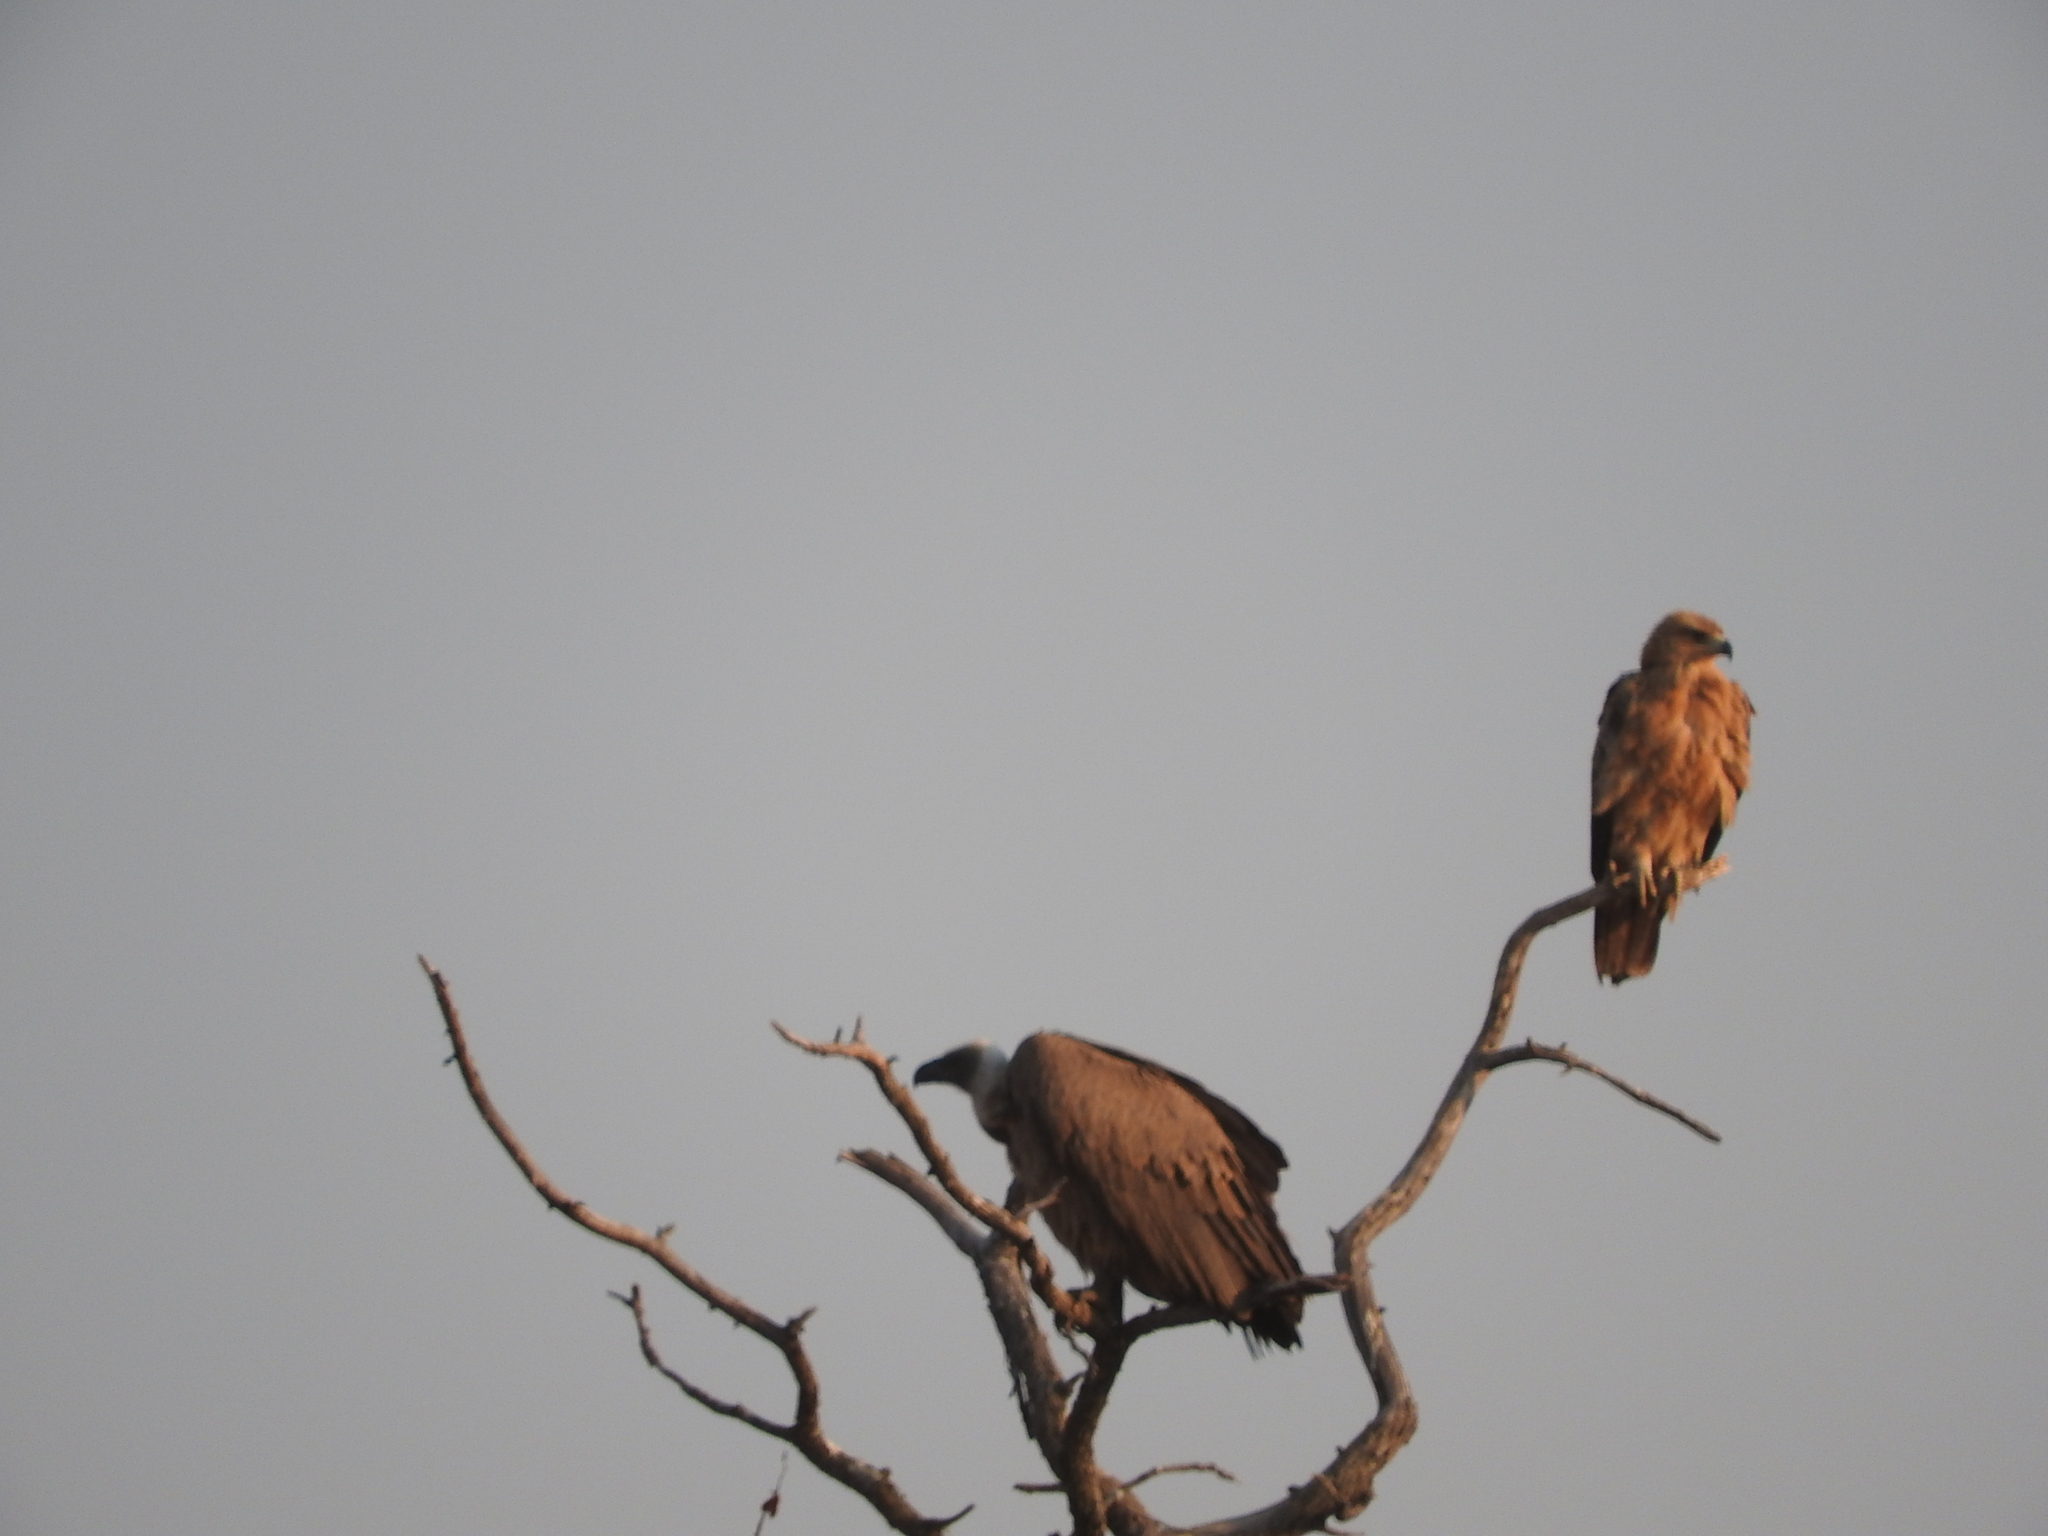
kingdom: Animalia
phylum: Chordata
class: Aves
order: Accipitriformes
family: Accipitridae
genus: Gyps
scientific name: Gyps africanus
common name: White-backed vulture
